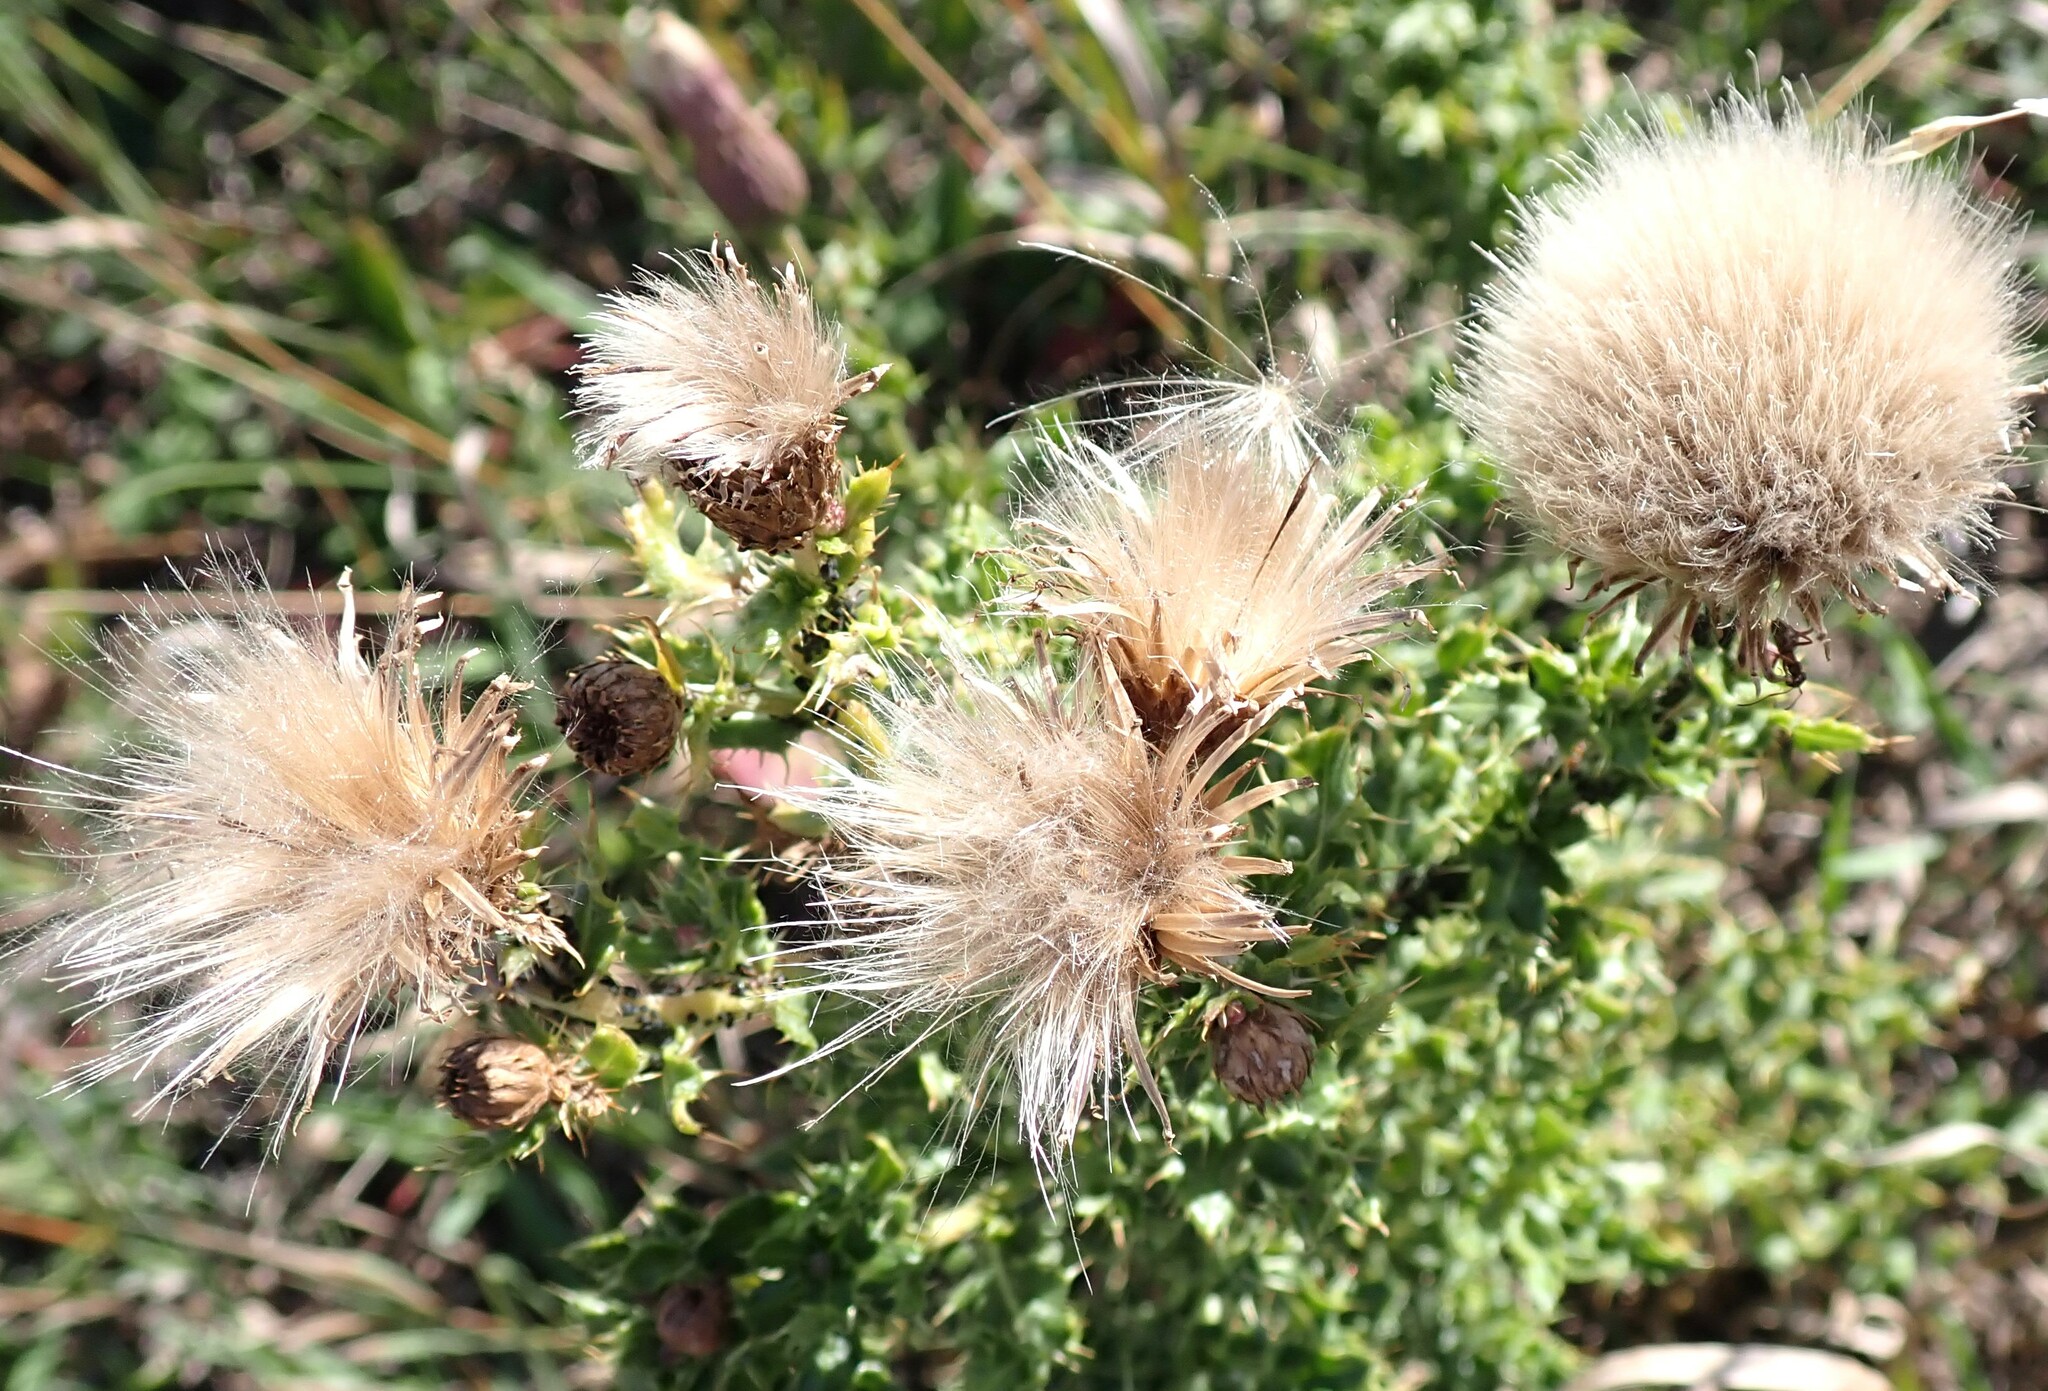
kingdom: Plantae
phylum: Tracheophyta
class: Magnoliopsida
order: Asterales
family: Asteraceae
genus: Cirsium
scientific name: Cirsium arvense
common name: Creeping thistle
